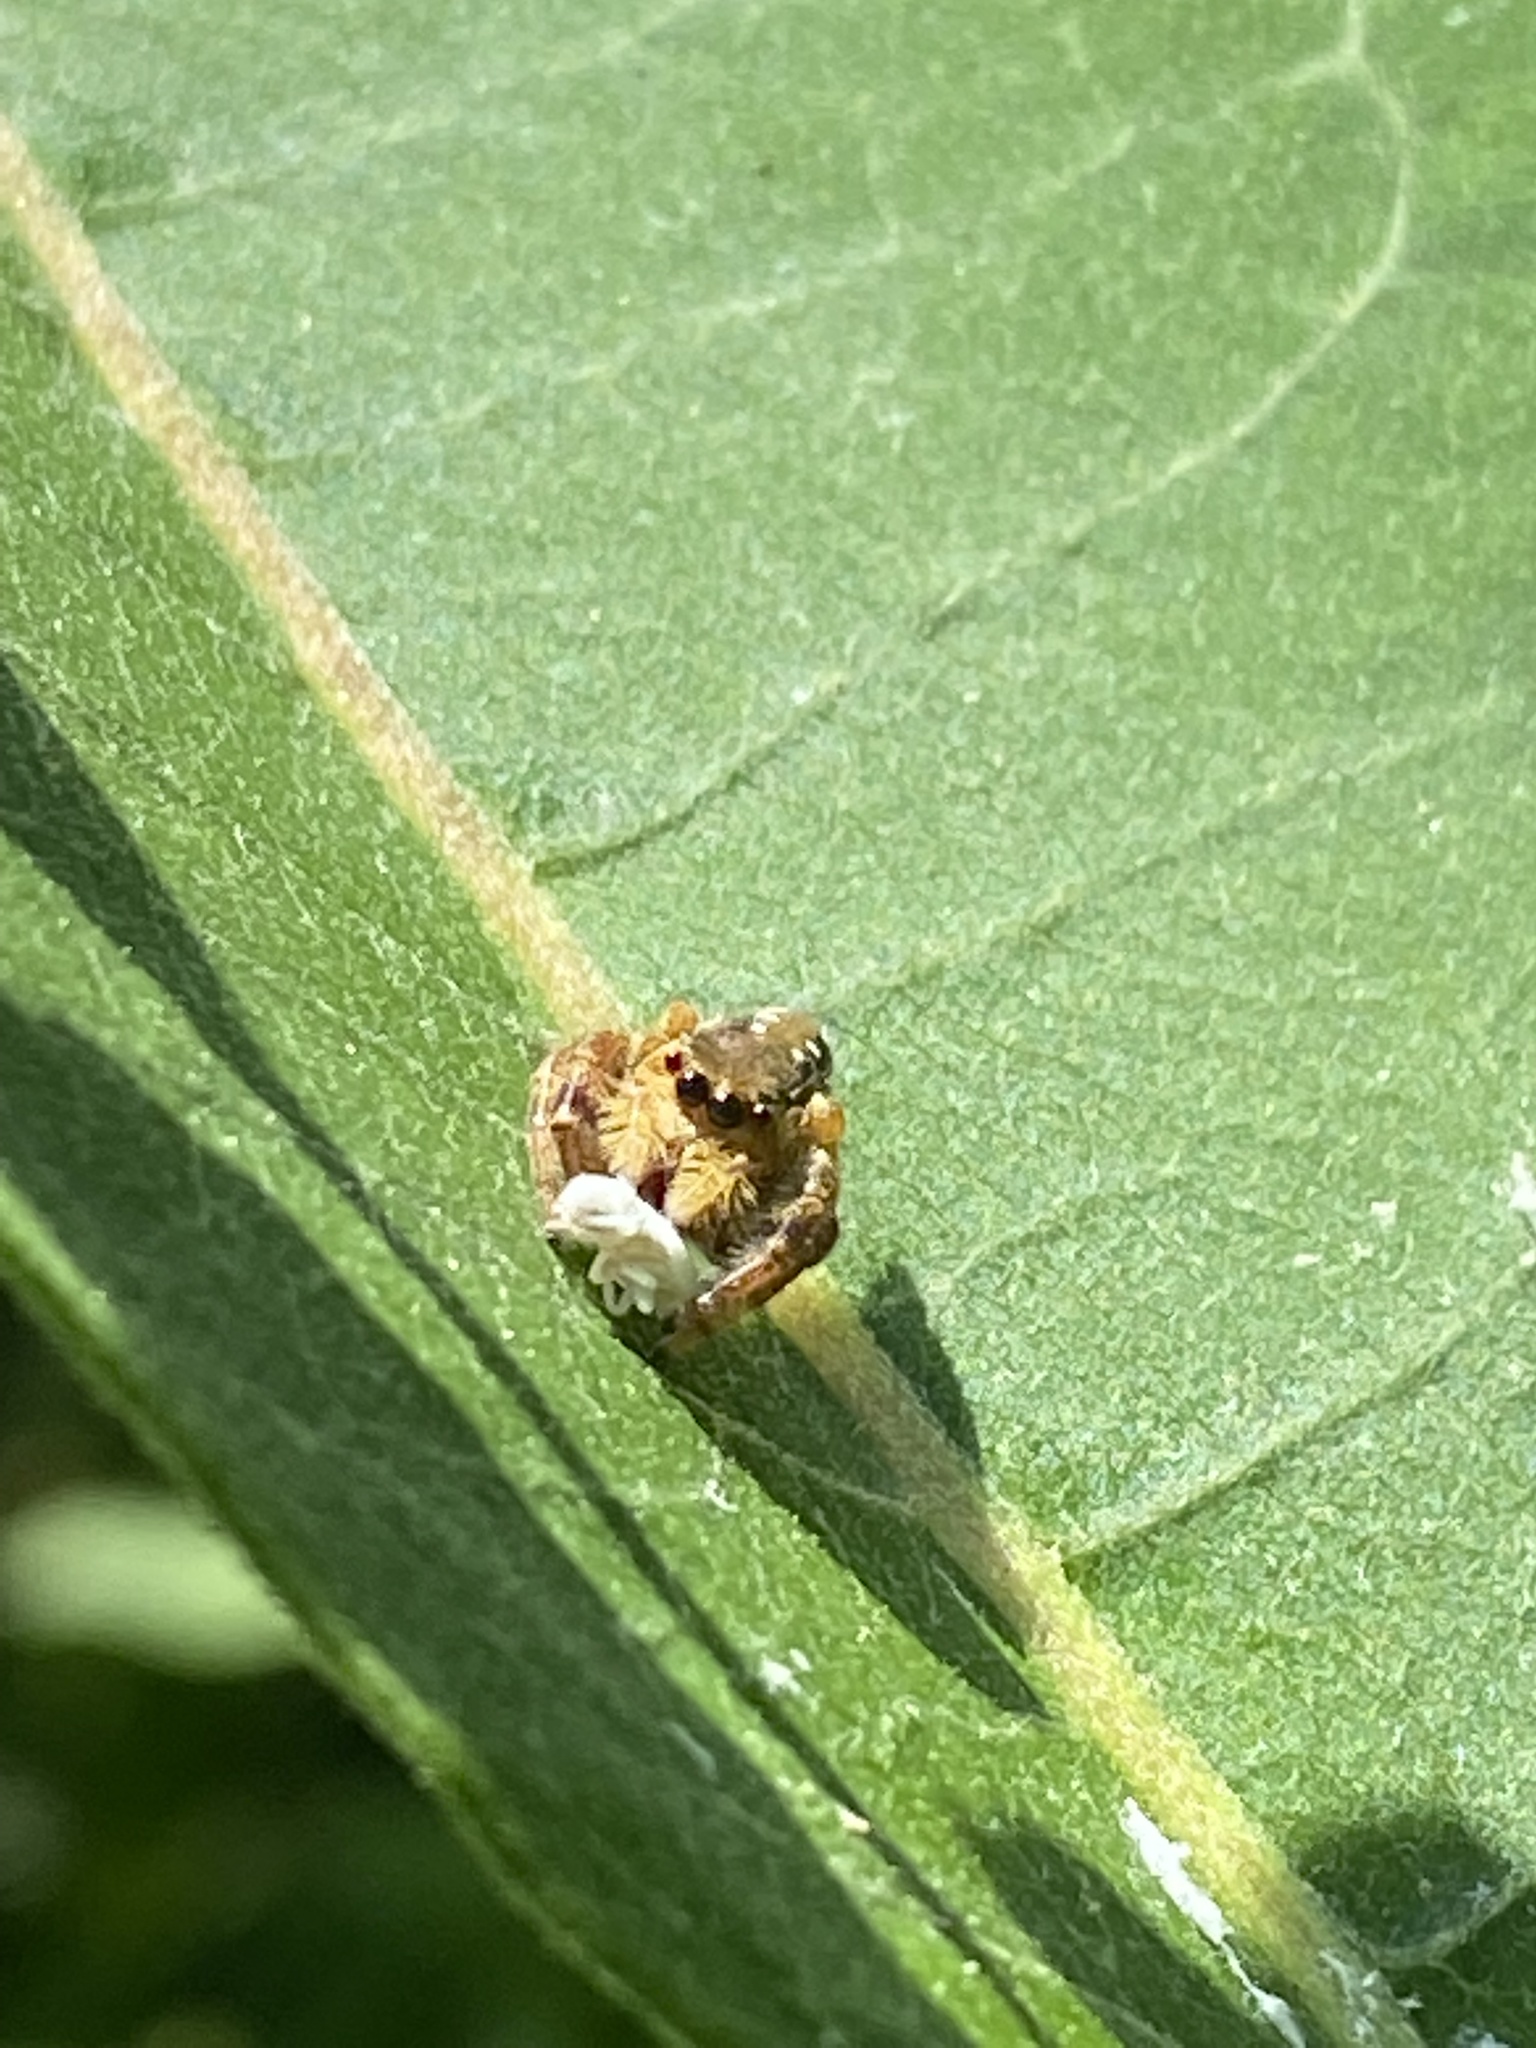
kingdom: Animalia
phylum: Arthropoda
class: Arachnida
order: Araneae
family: Salticidae
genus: Paraphidippus
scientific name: Paraphidippus aurantius
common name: Jumping spiders
